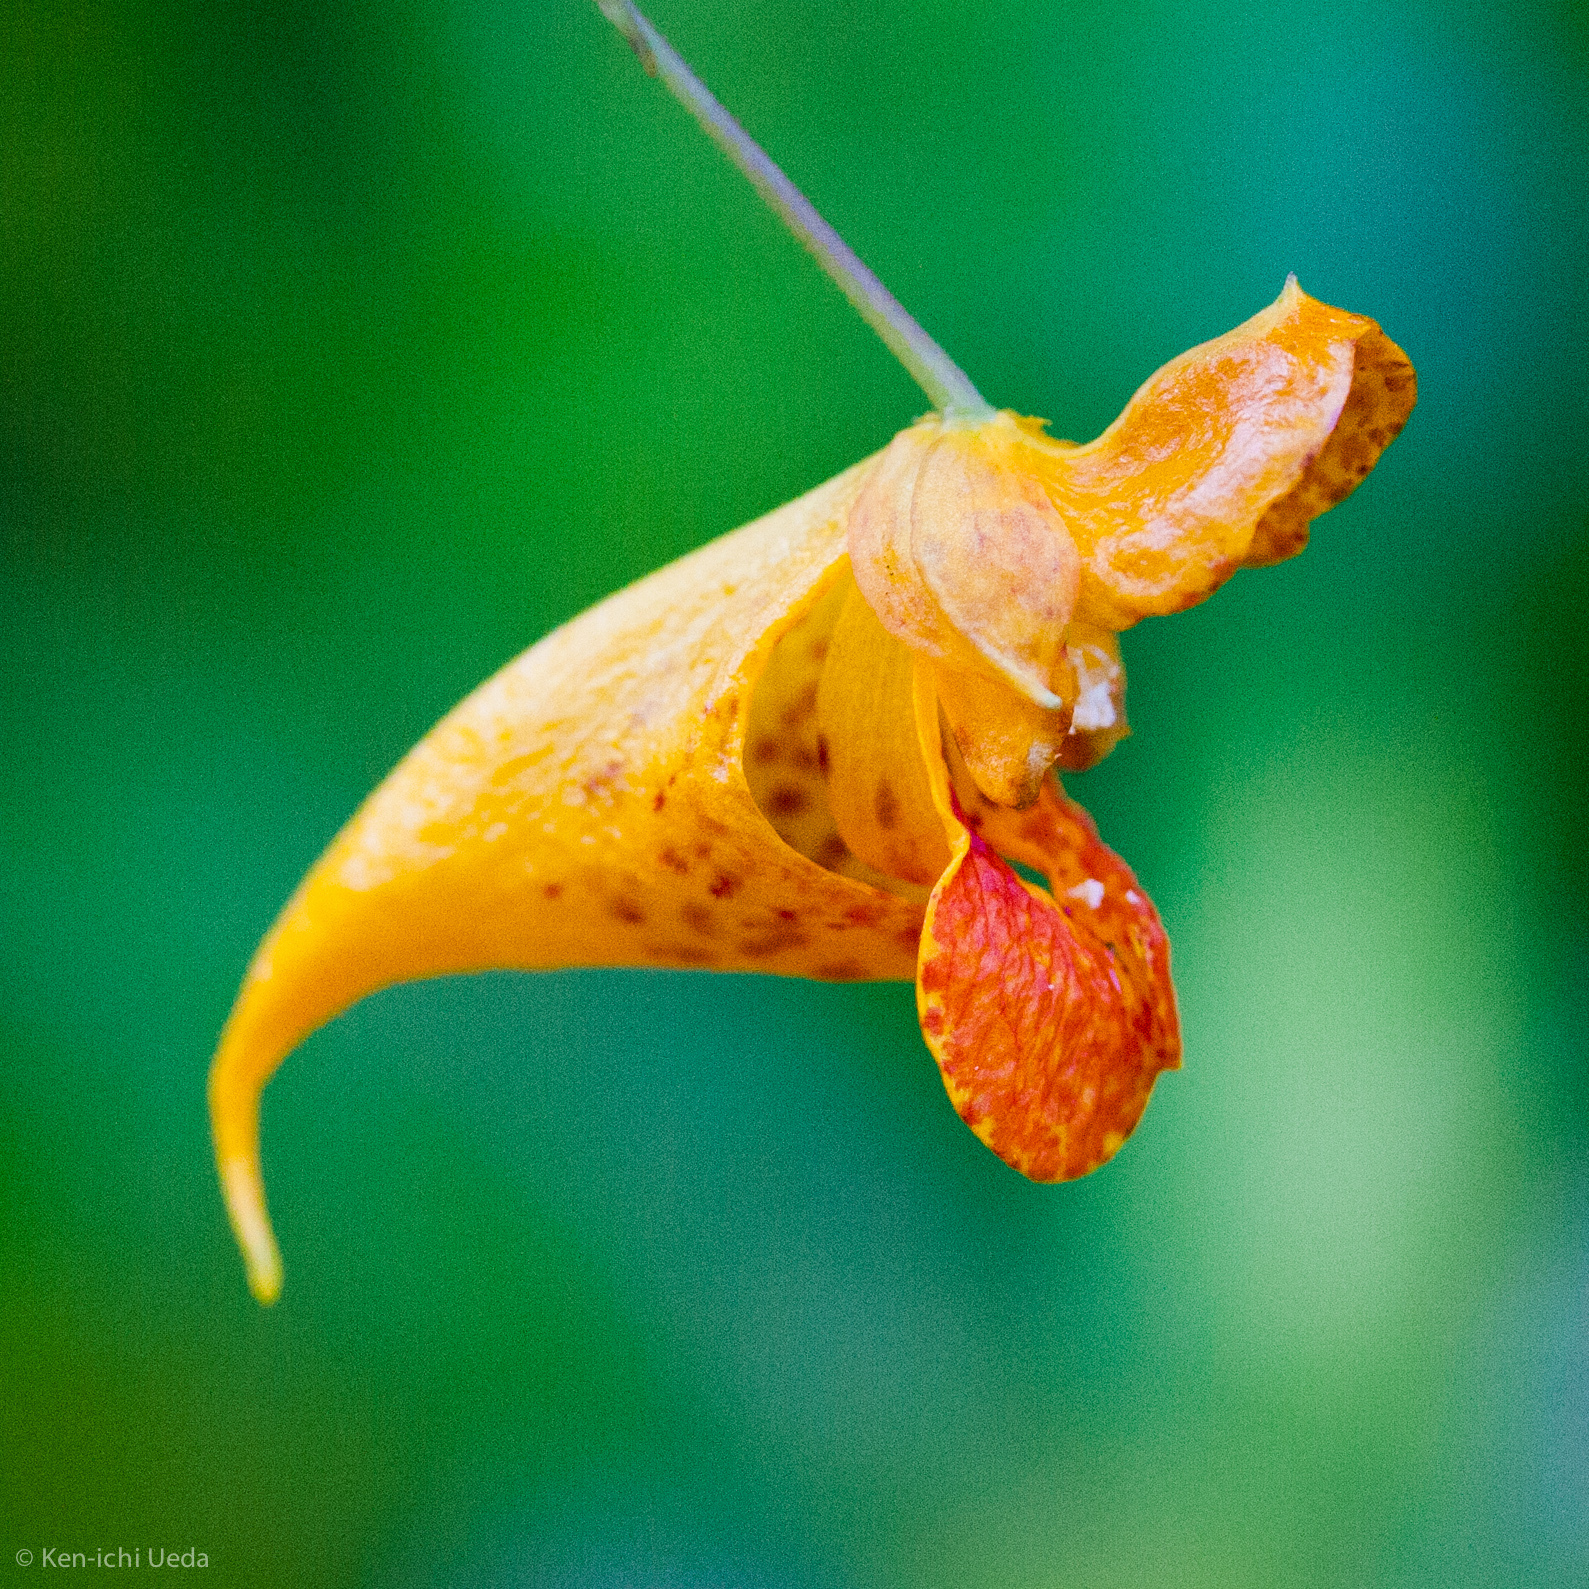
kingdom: Plantae
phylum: Tracheophyta
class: Magnoliopsida
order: Ericales
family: Balsaminaceae
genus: Impatiens
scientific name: Impatiens capensis
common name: Orange balsam
